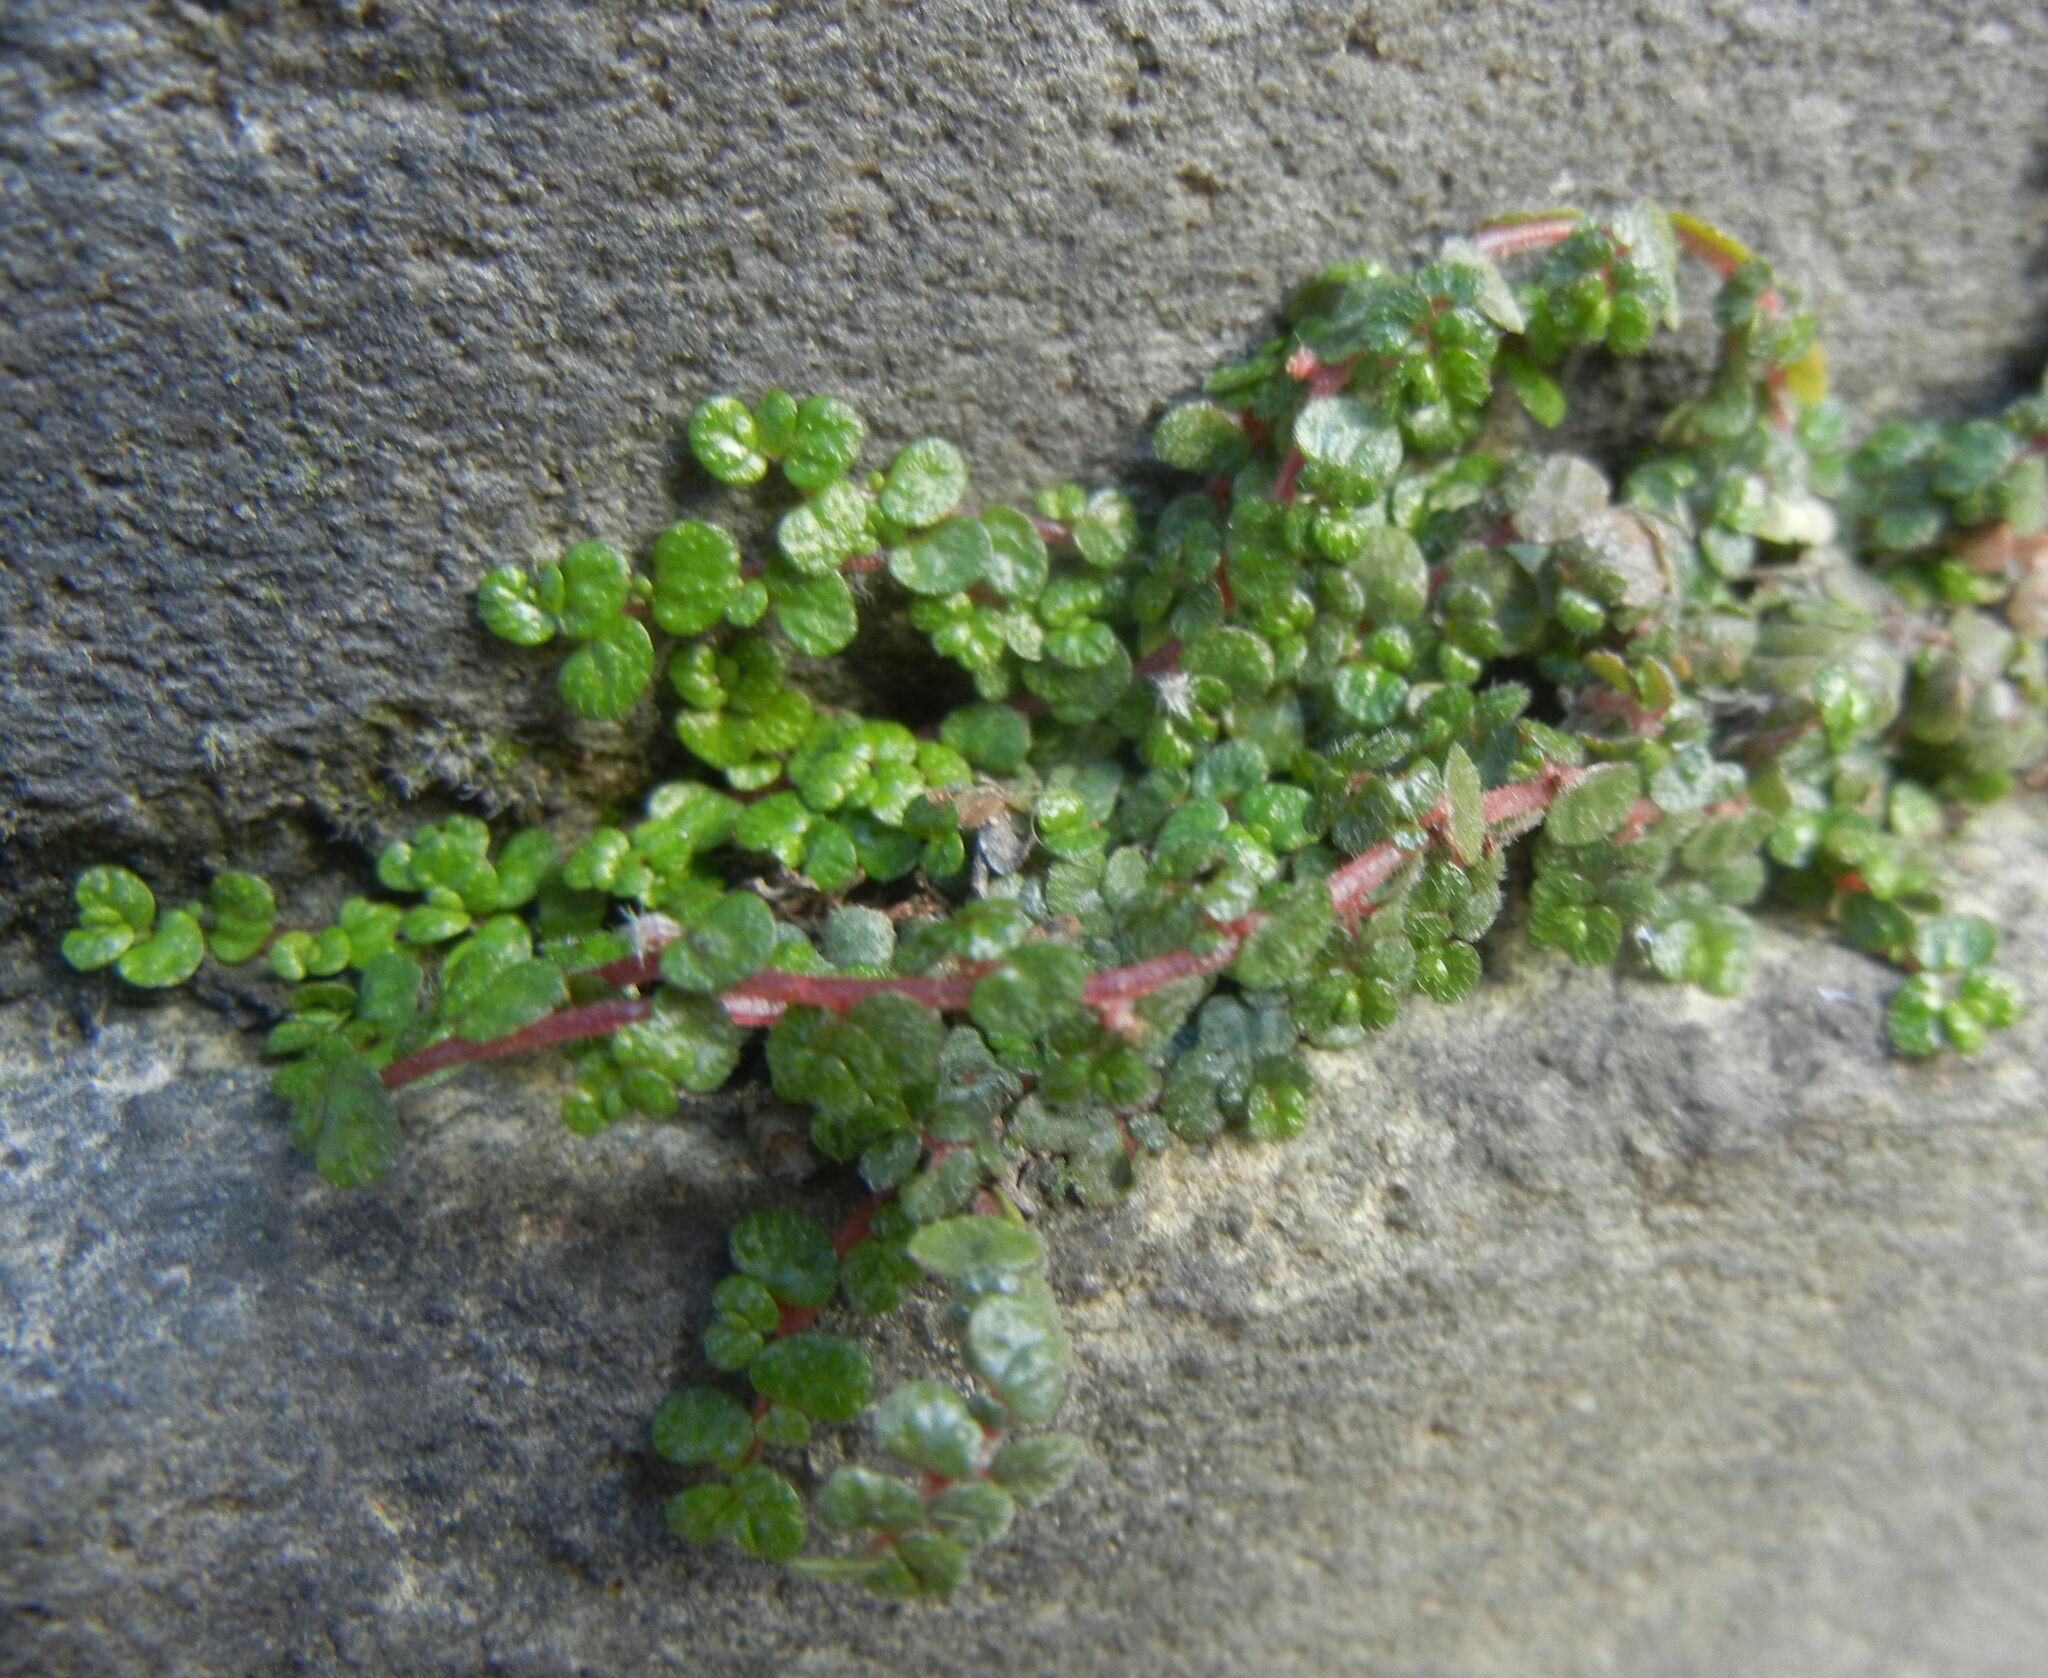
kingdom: Plantae
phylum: Tracheophyta
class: Magnoliopsida
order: Rosales
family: Urticaceae
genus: Soleirolia
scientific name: Soleirolia soleirolii
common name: Mind-your-own-business
